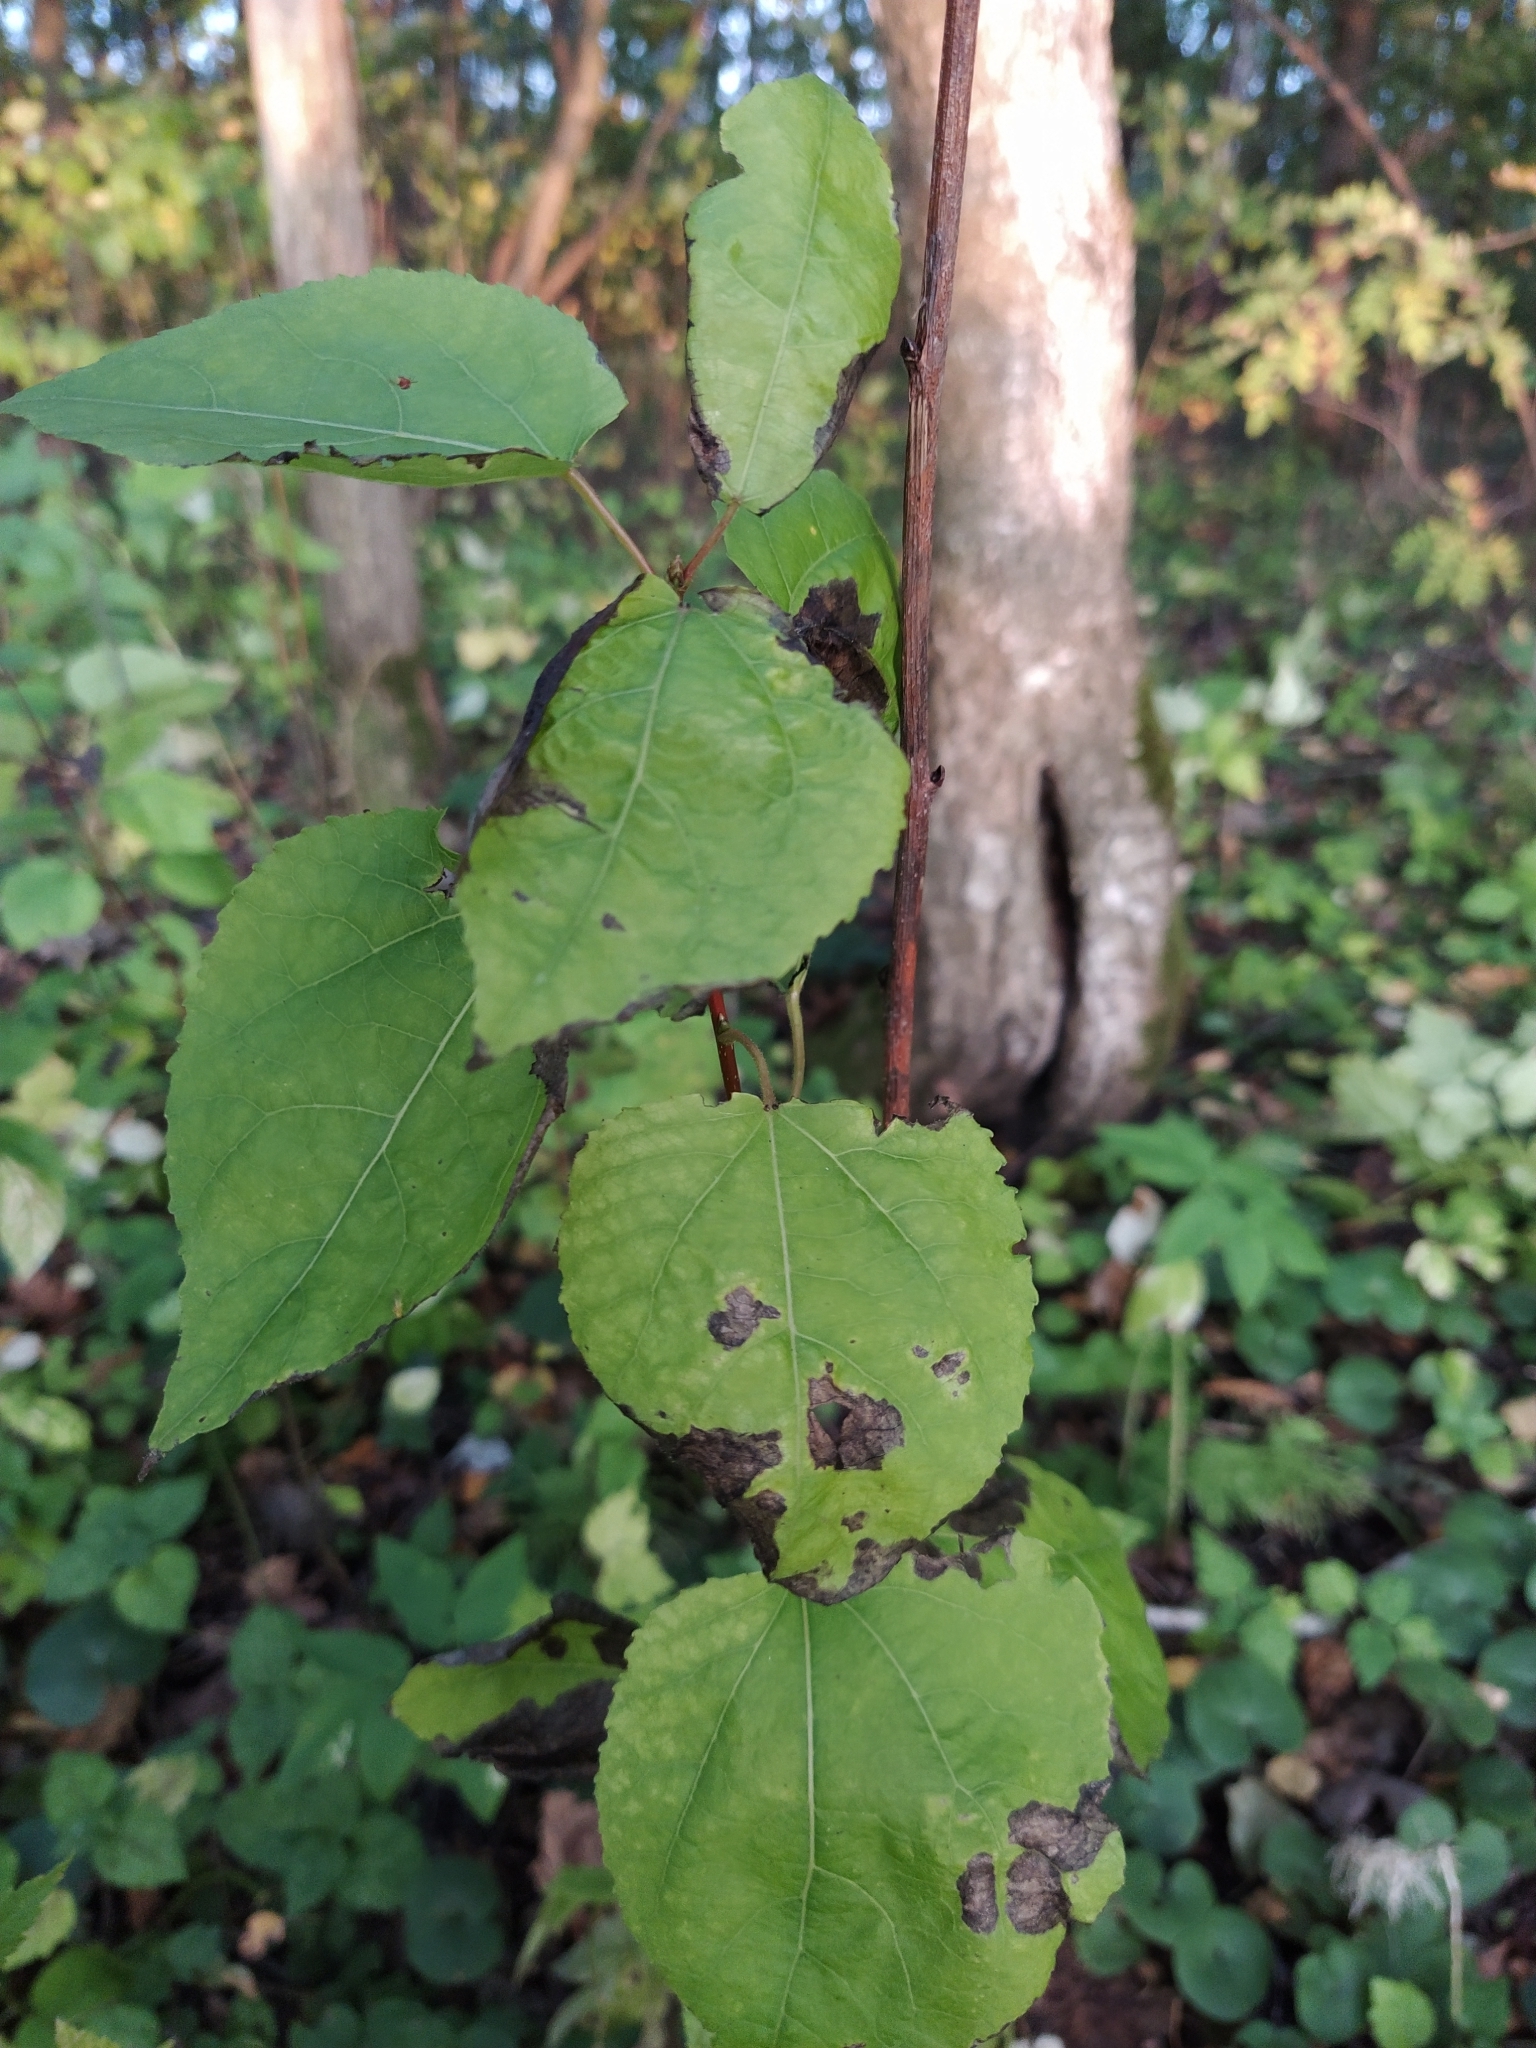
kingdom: Plantae
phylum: Tracheophyta
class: Magnoliopsida
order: Malpighiales
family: Salicaceae
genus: Populus
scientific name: Populus tremula
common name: European aspen
